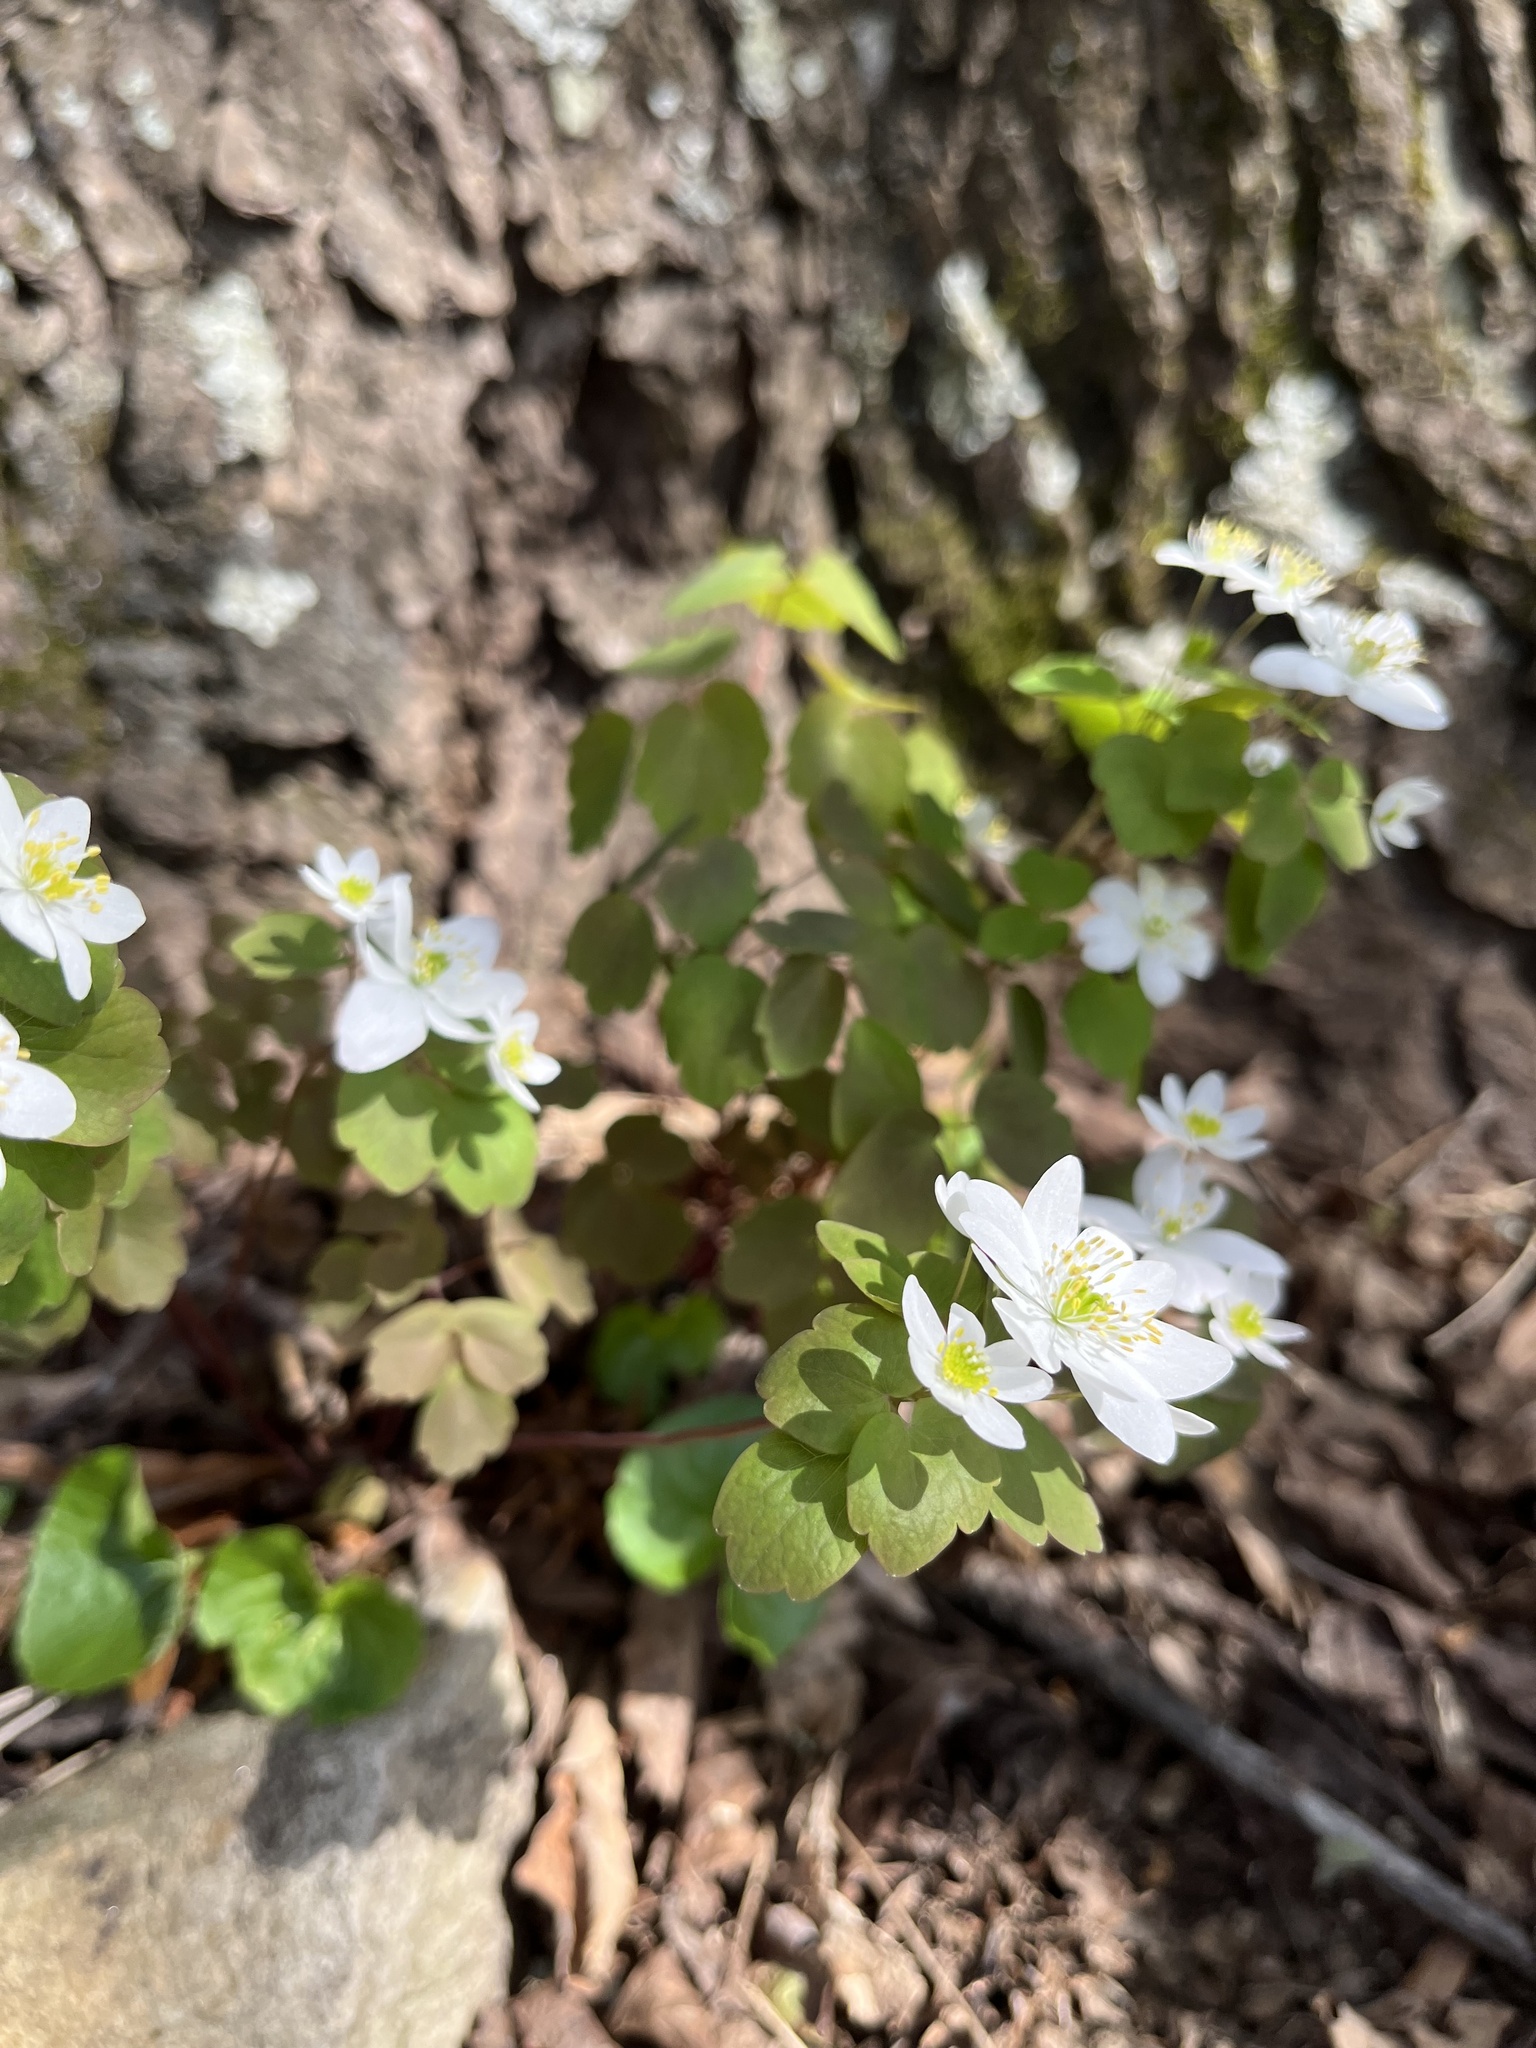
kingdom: Plantae
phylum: Tracheophyta
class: Magnoliopsida
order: Ranunculales
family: Ranunculaceae
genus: Thalictrum
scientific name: Thalictrum thalictroides
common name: Rue-anemone
